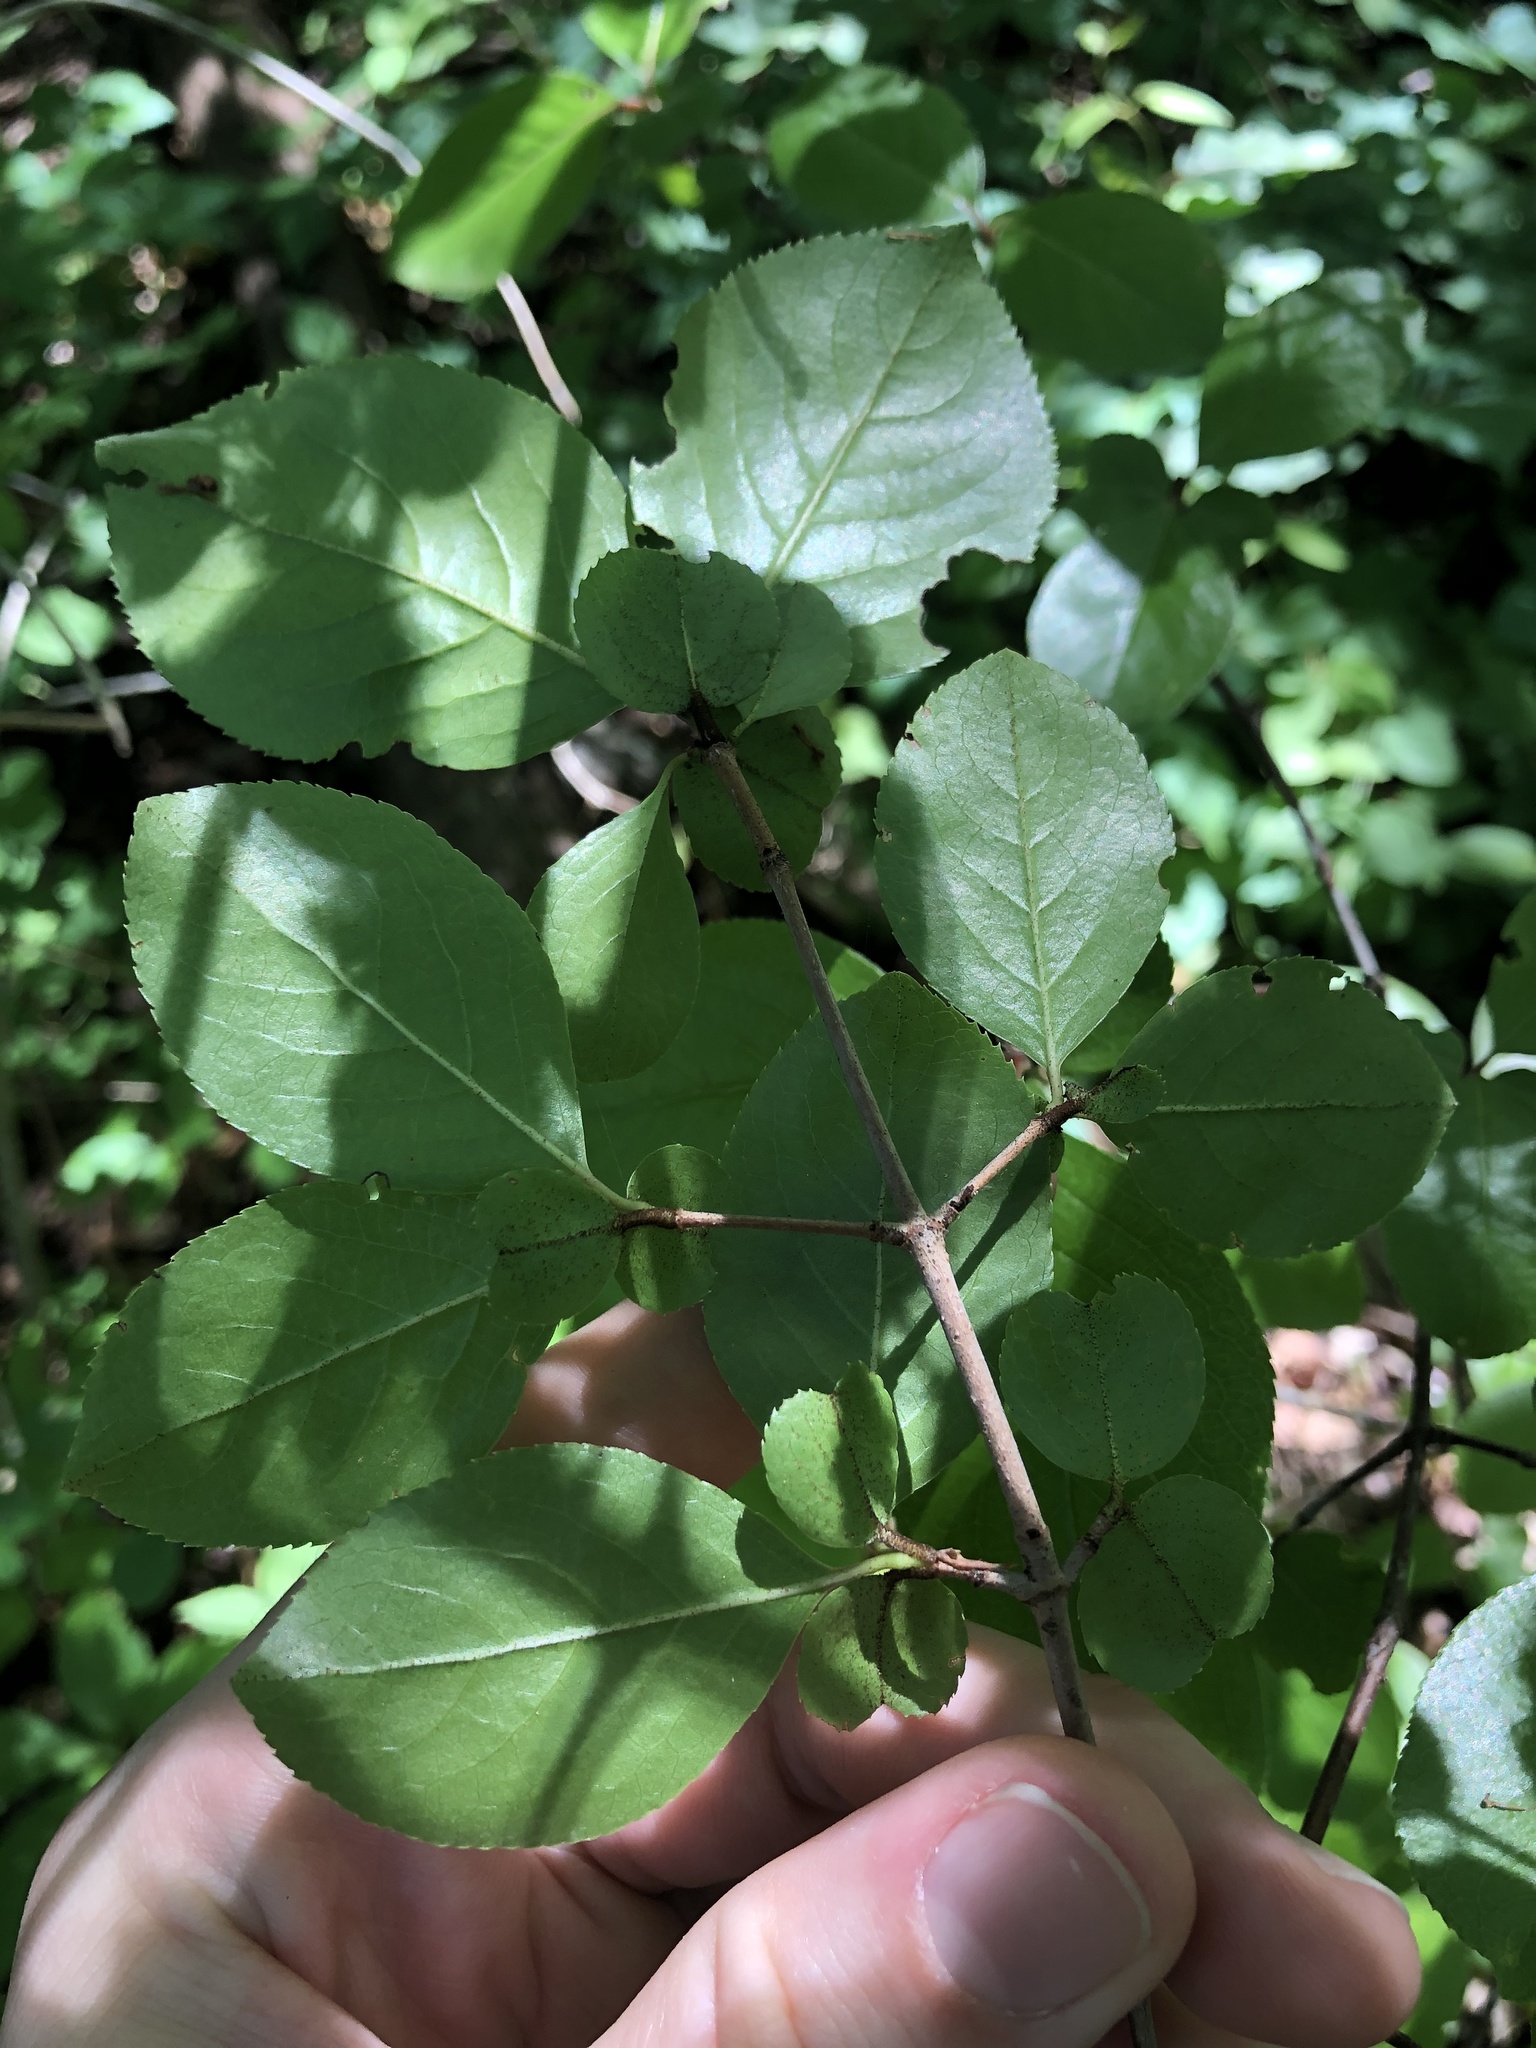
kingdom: Plantae
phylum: Tracheophyta
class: Magnoliopsida
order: Dipsacales
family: Viburnaceae
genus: Viburnum
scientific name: Viburnum rufidulum
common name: Blue haw
